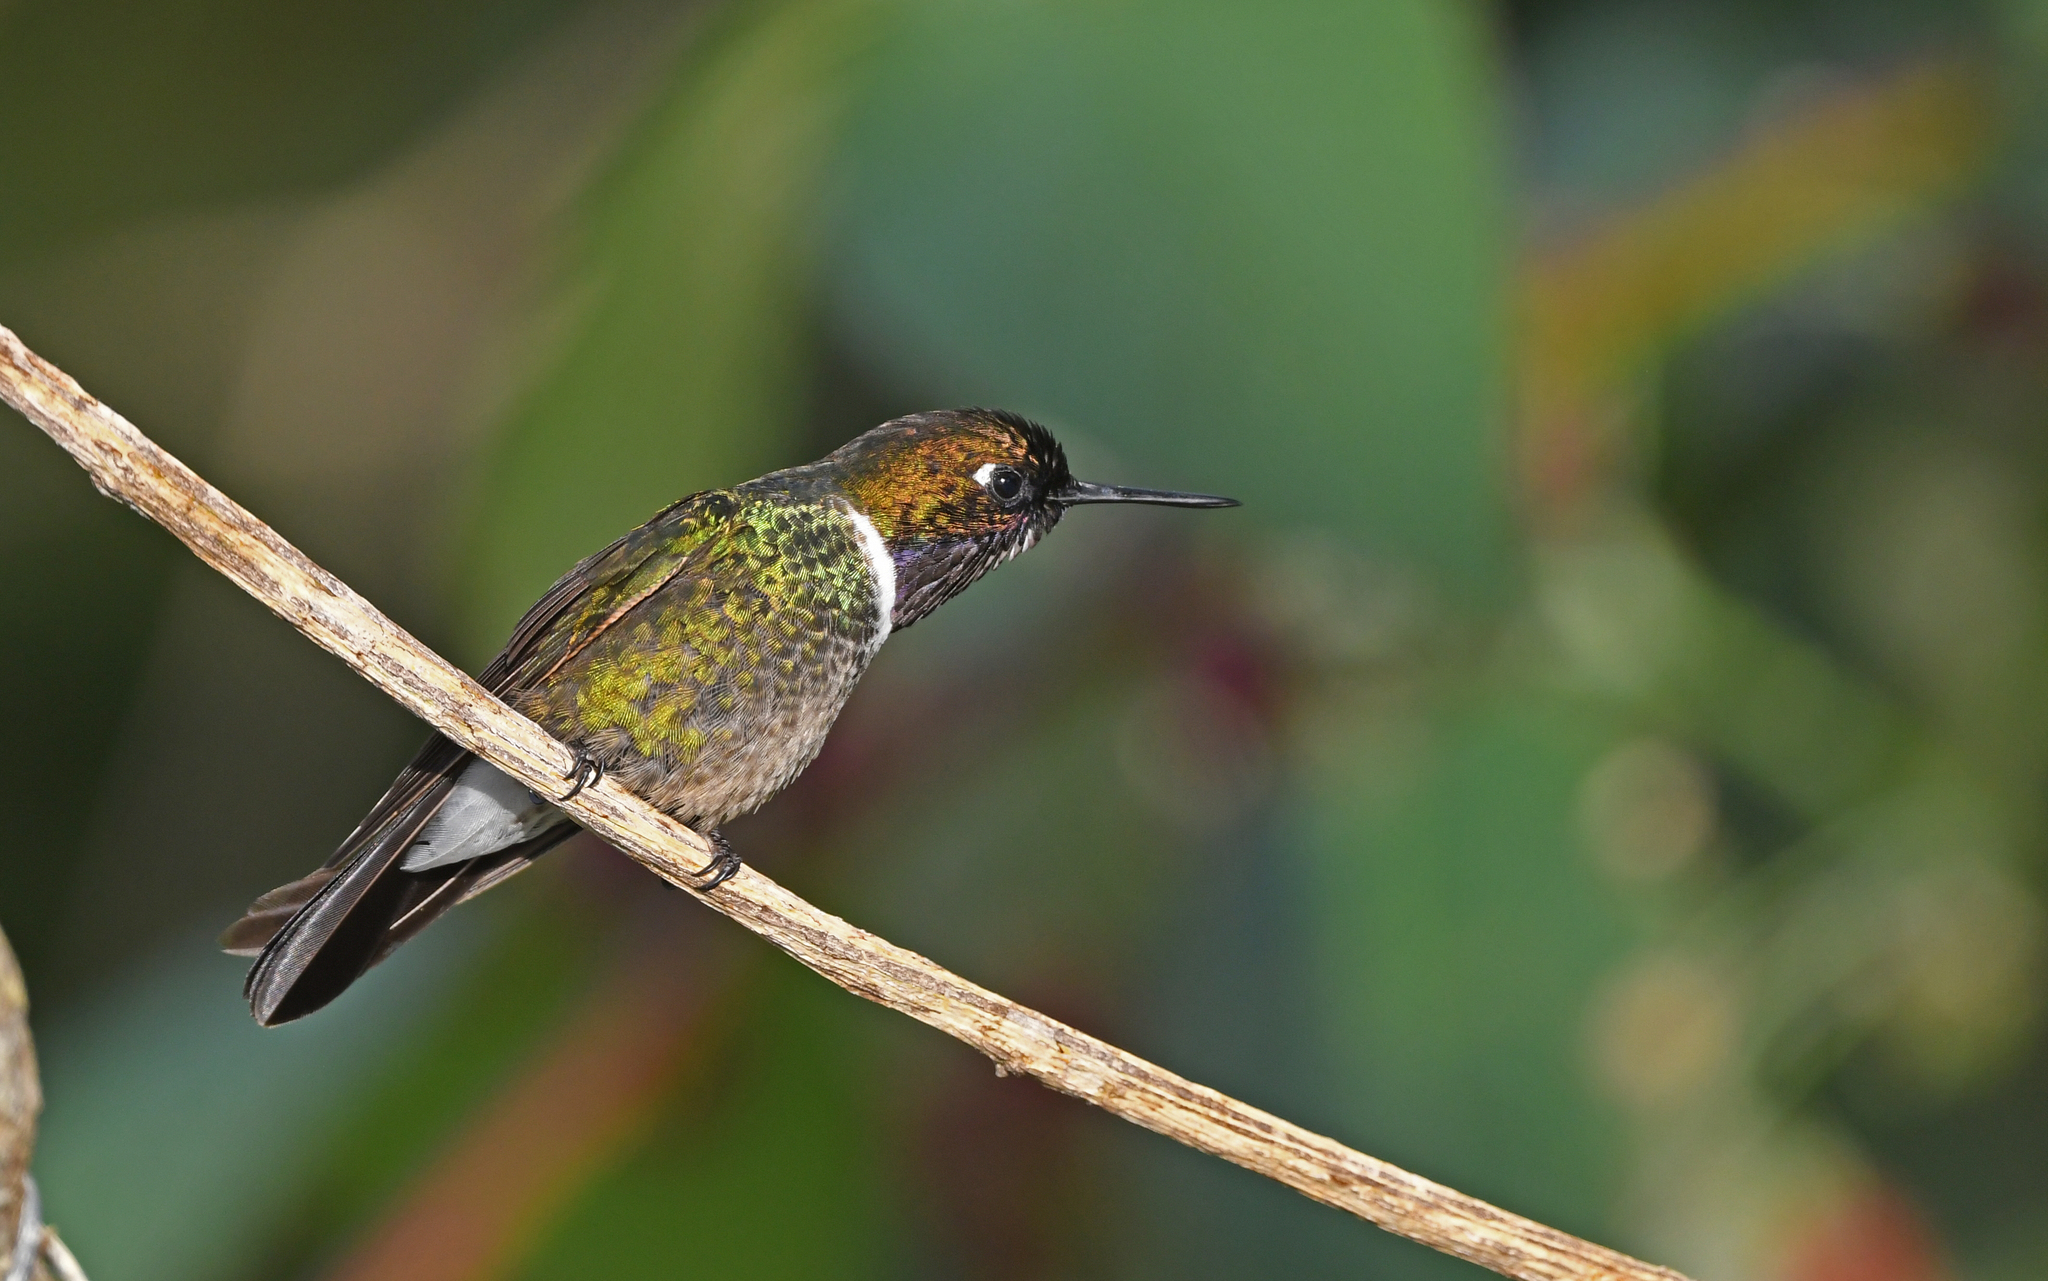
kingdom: Animalia
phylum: Chordata
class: Aves
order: Apodiformes
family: Trochilidae
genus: Heliangelus
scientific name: Heliangelus clarisse
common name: Longuemare's sunangel
